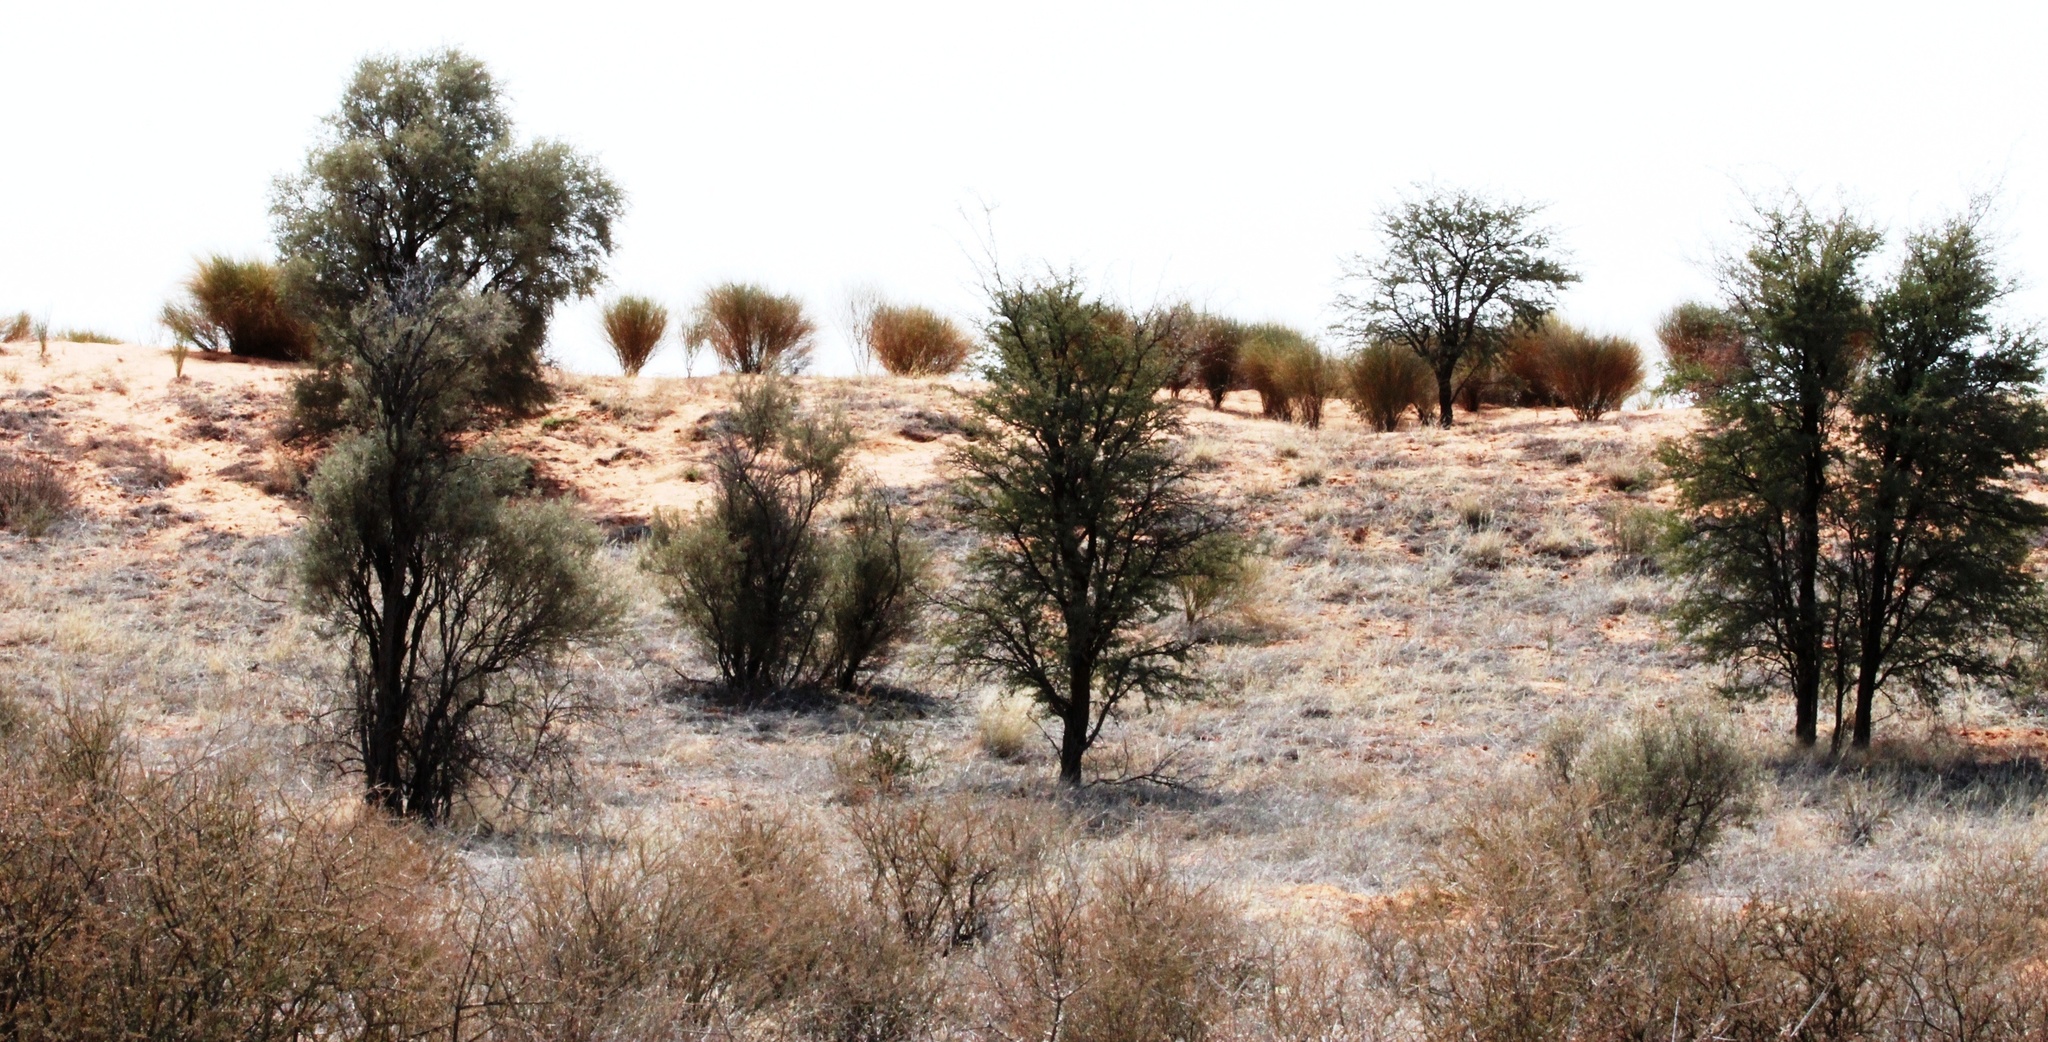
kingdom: Plantae
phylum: Tracheophyta
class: Magnoliopsida
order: Fabales
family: Fabaceae
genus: Crotalaria
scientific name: Crotalaria spartioides
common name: Dunebush
